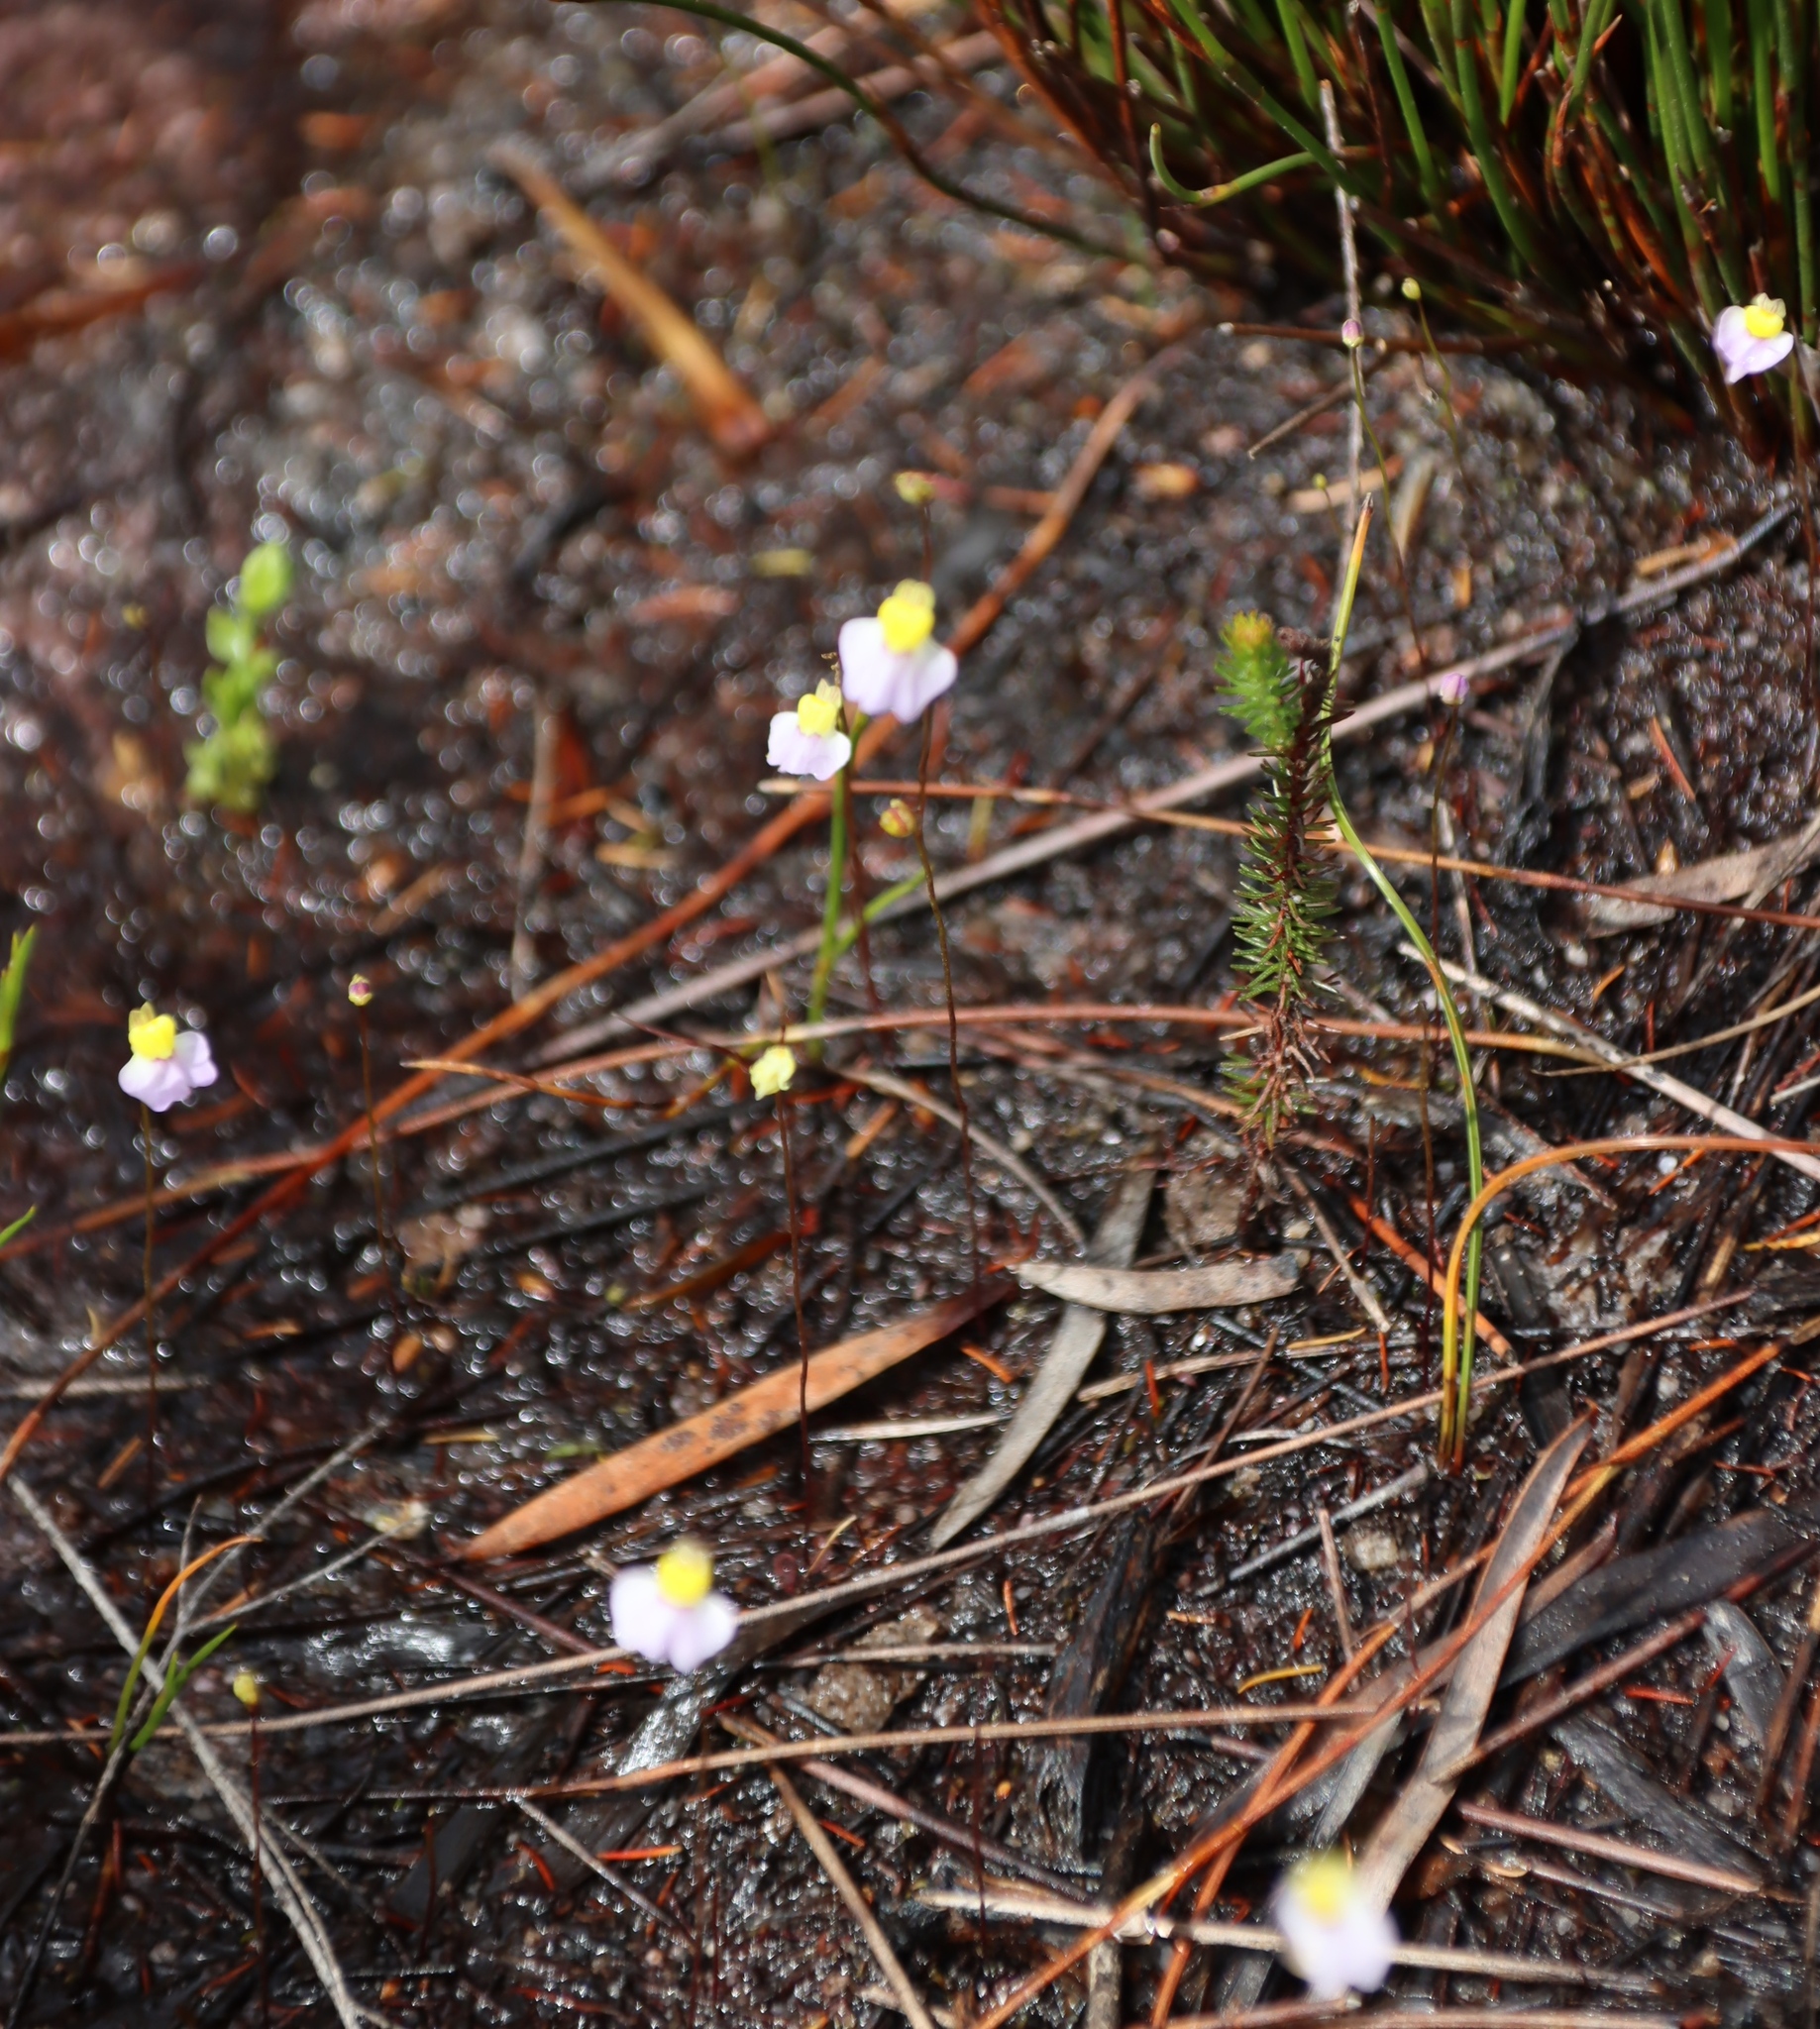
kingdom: Plantae
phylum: Tracheophyta
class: Magnoliopsida
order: Lamiales
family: Lentibulariaceae
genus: Utricularia
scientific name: Utricularia bisquamata
